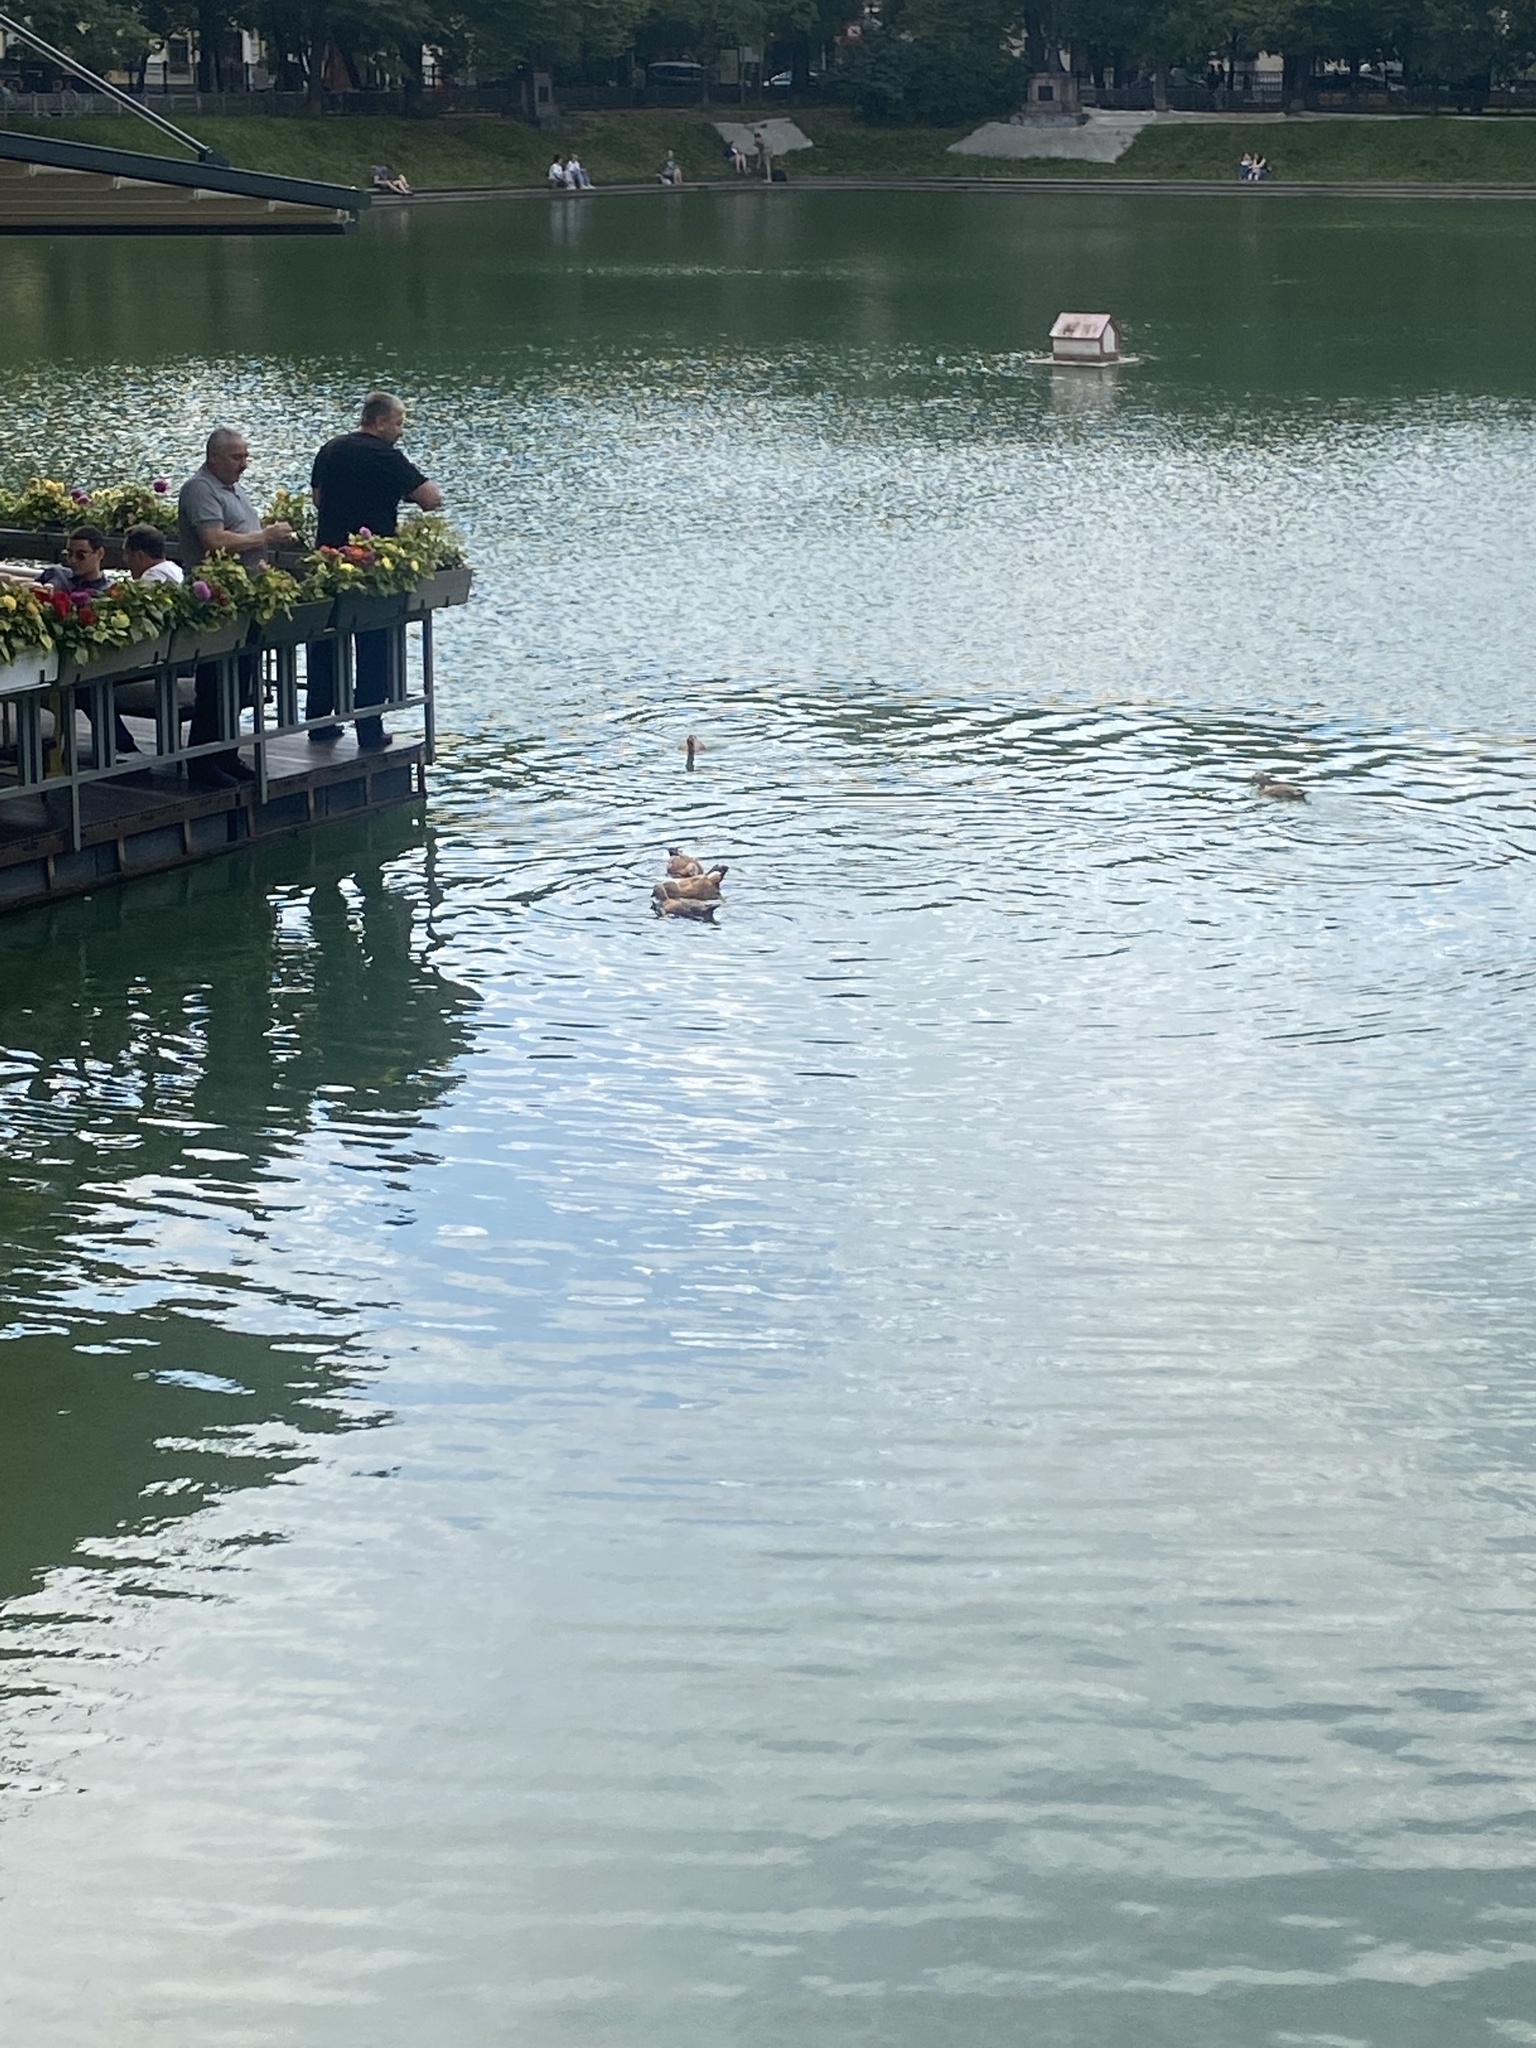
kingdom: Animalia
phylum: Chordata
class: Aves
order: Anseriformes
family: Anatidae
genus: Tadorna
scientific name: Tadorna ferruginea
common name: Ruddy shelduck
